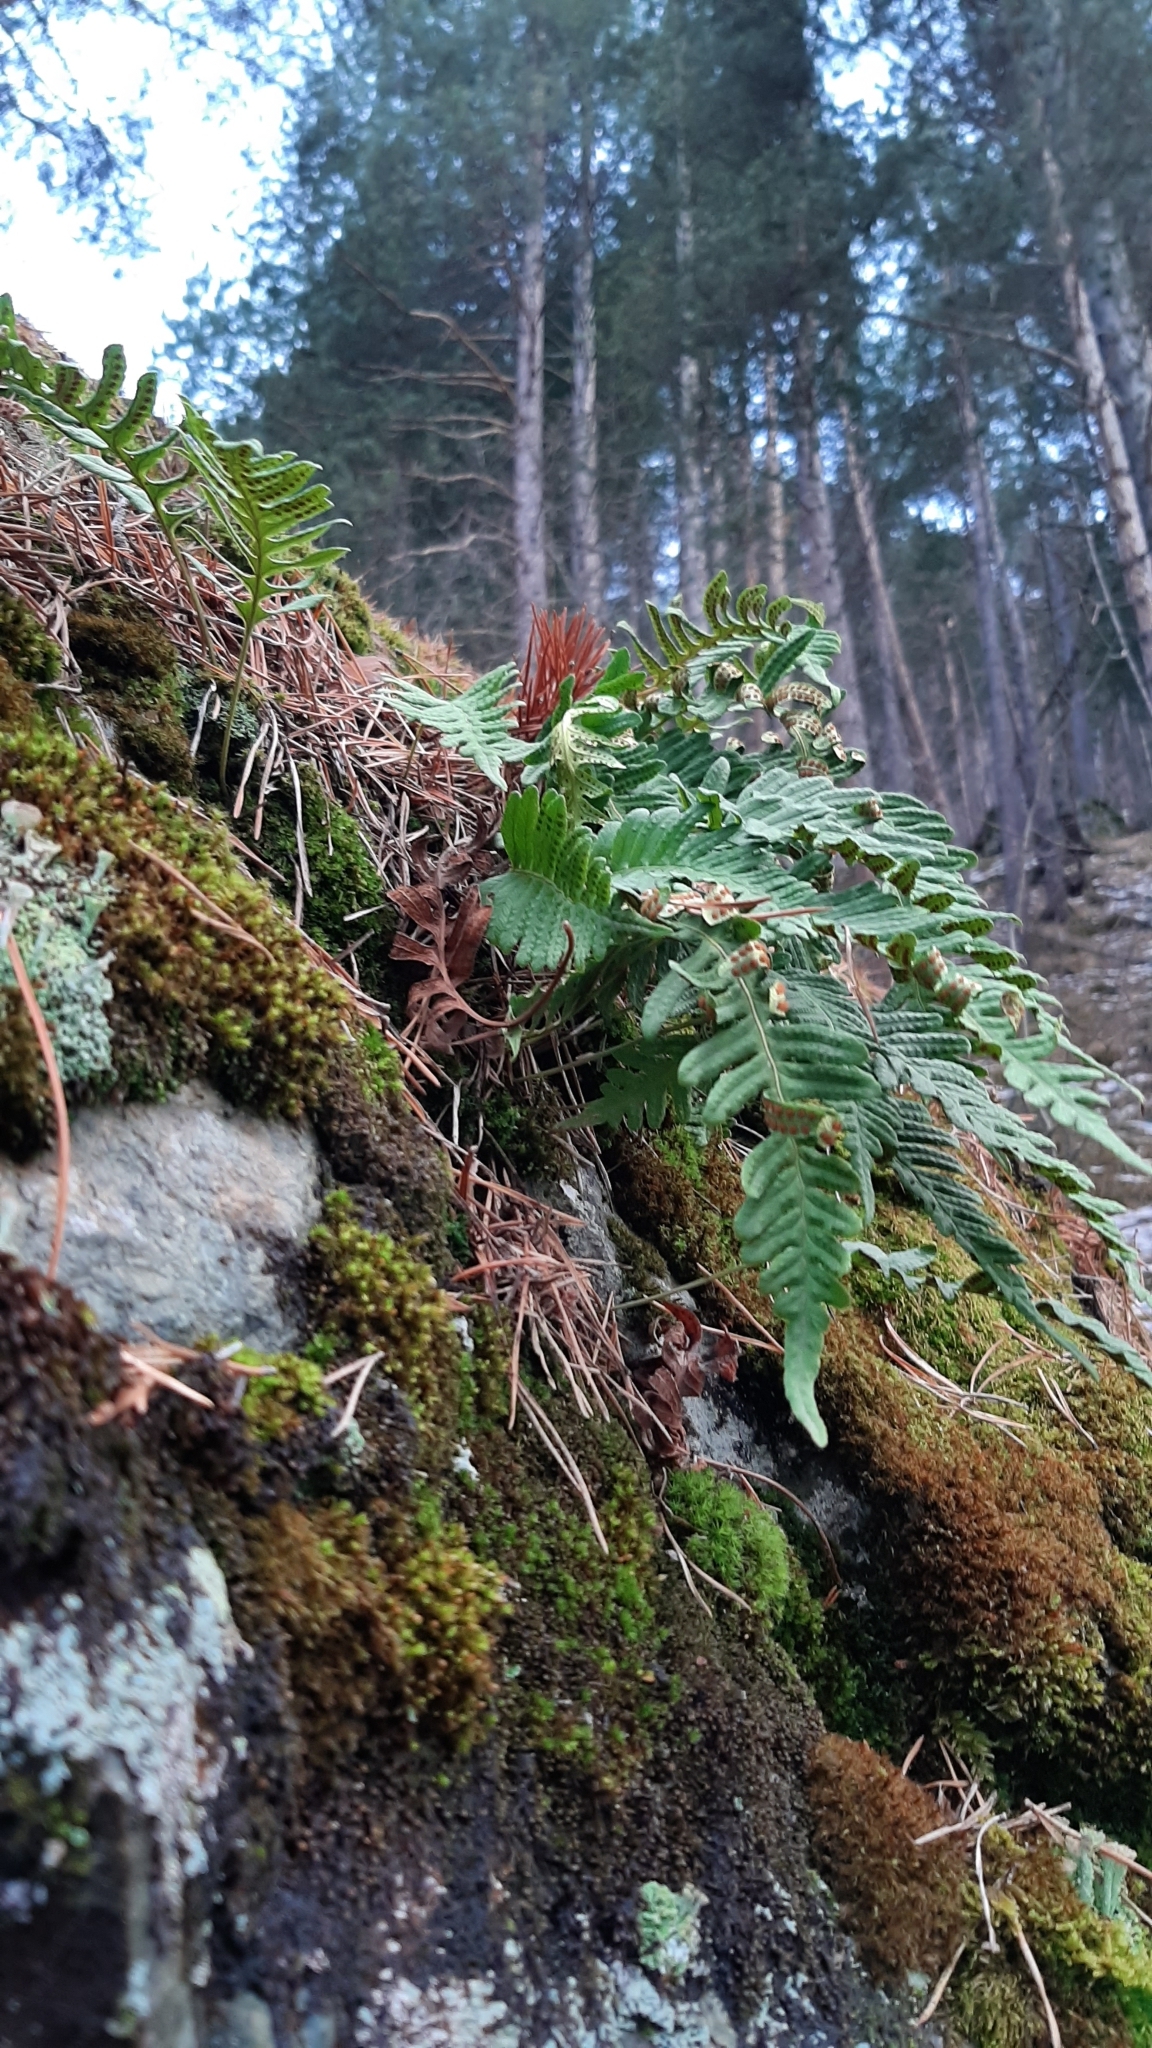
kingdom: Plantae
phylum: Tracheophyta
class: Polypodiopsida
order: Polypodiales
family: Polypodiaceae
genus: Polypodium
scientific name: Polypodium vulgare
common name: Common polypody
